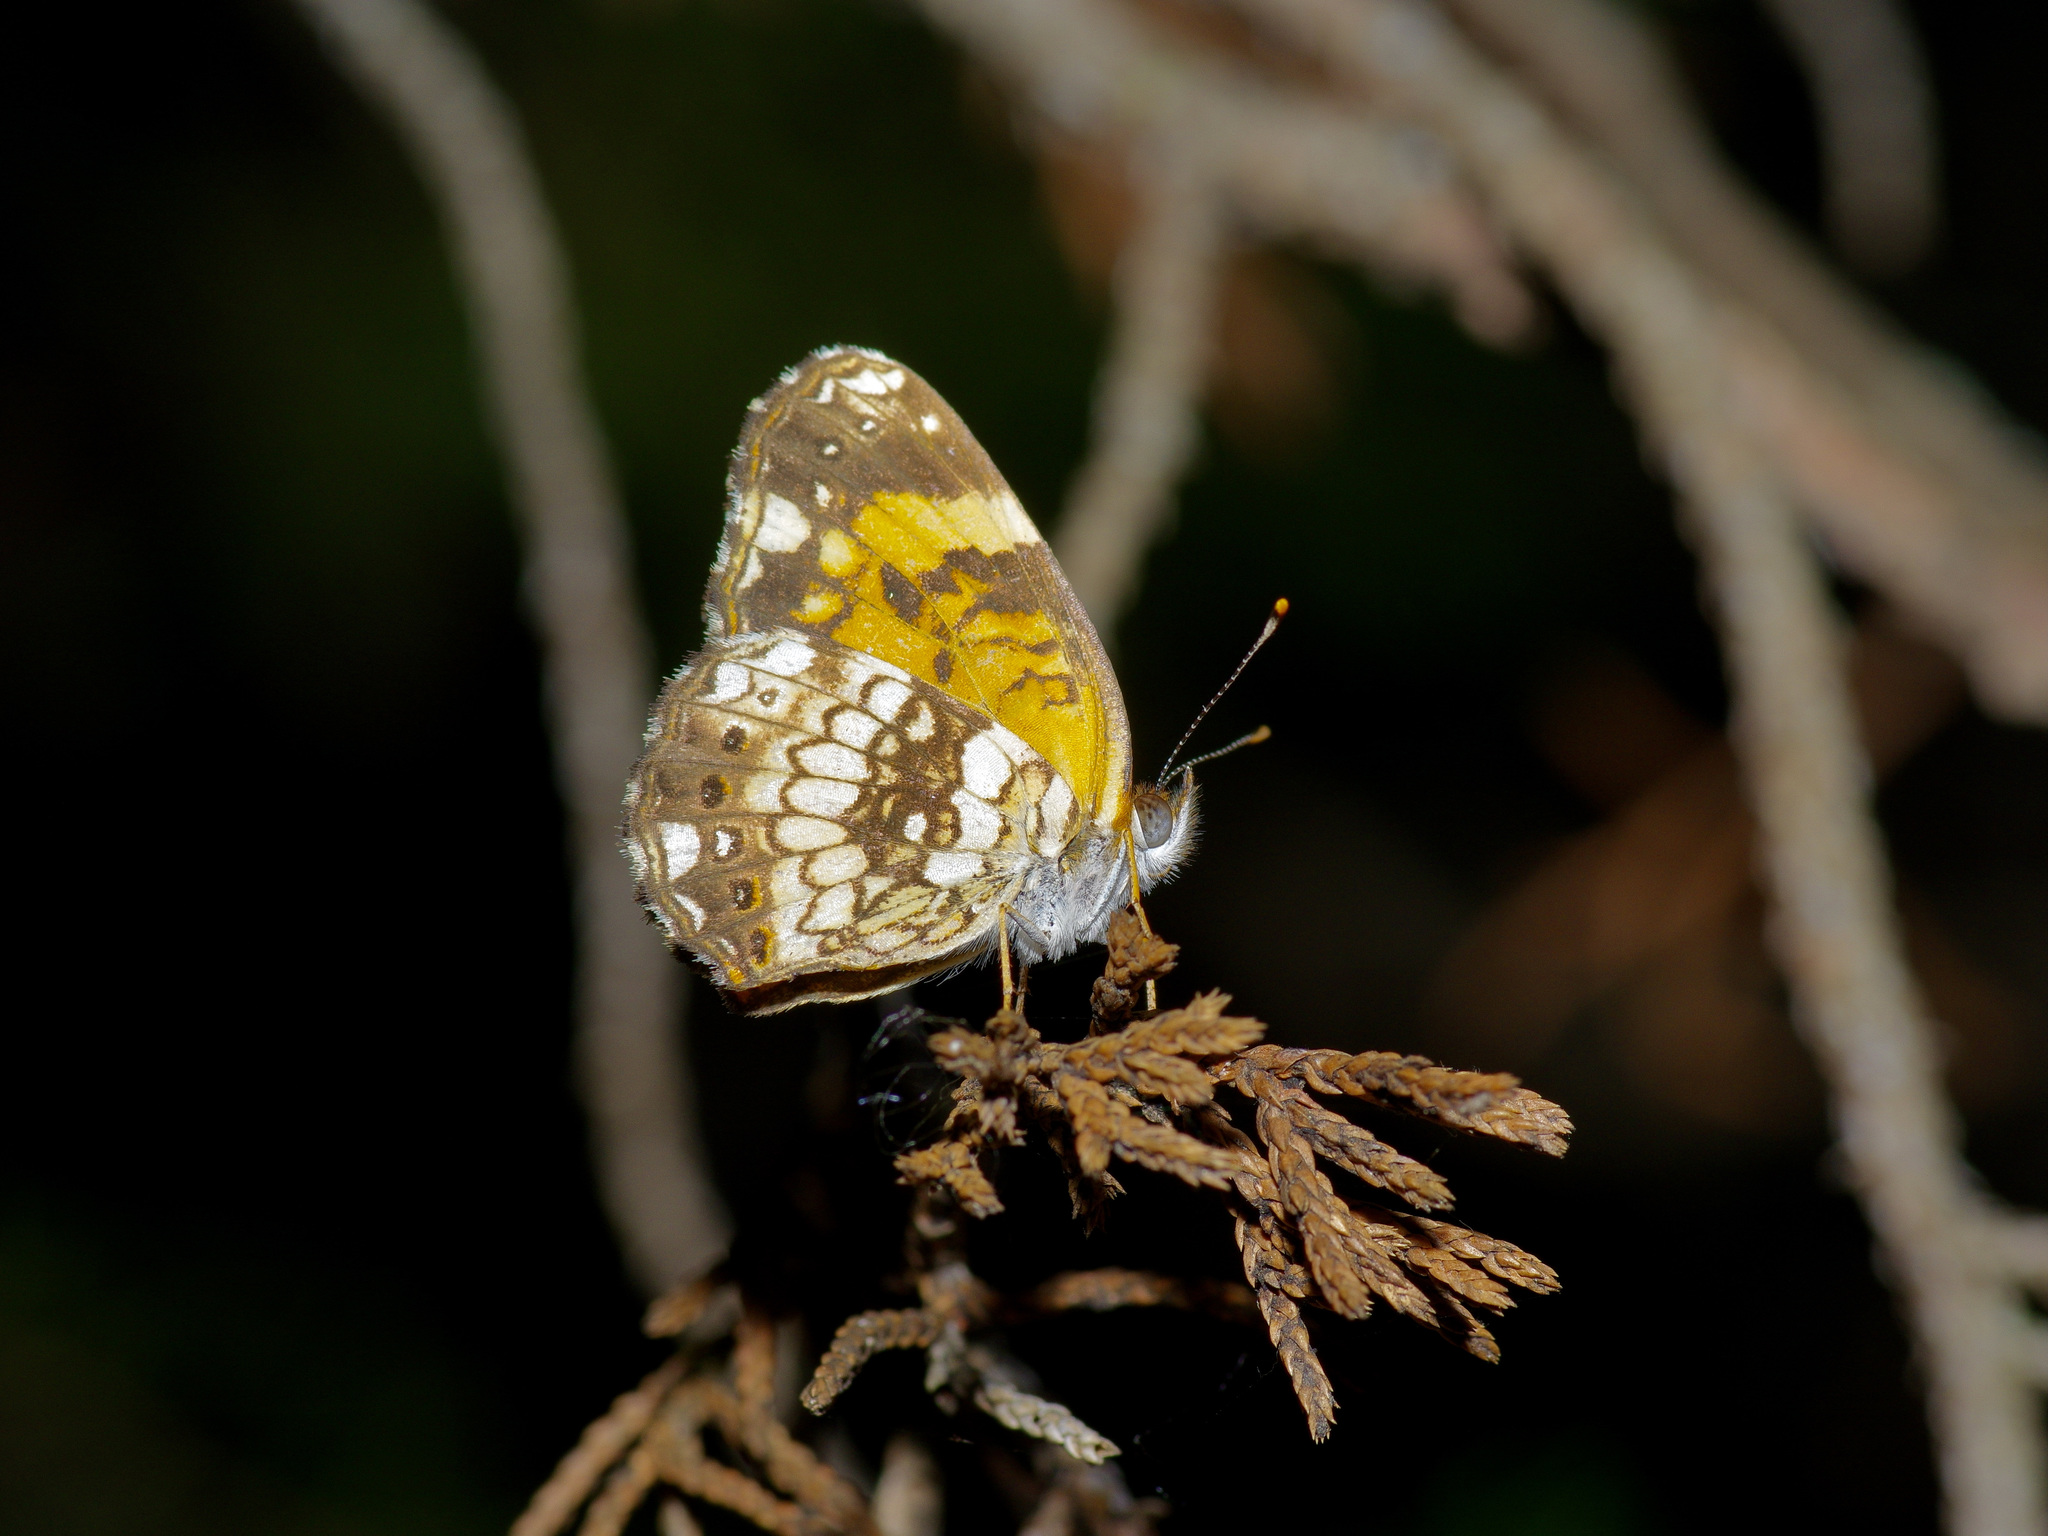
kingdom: Animalia
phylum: Arthropoda
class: Insecta
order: Lepidoptera
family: Nymphalidae
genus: Chlosyne
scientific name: Chlosyne nycteis
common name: Silvery checkerspot
